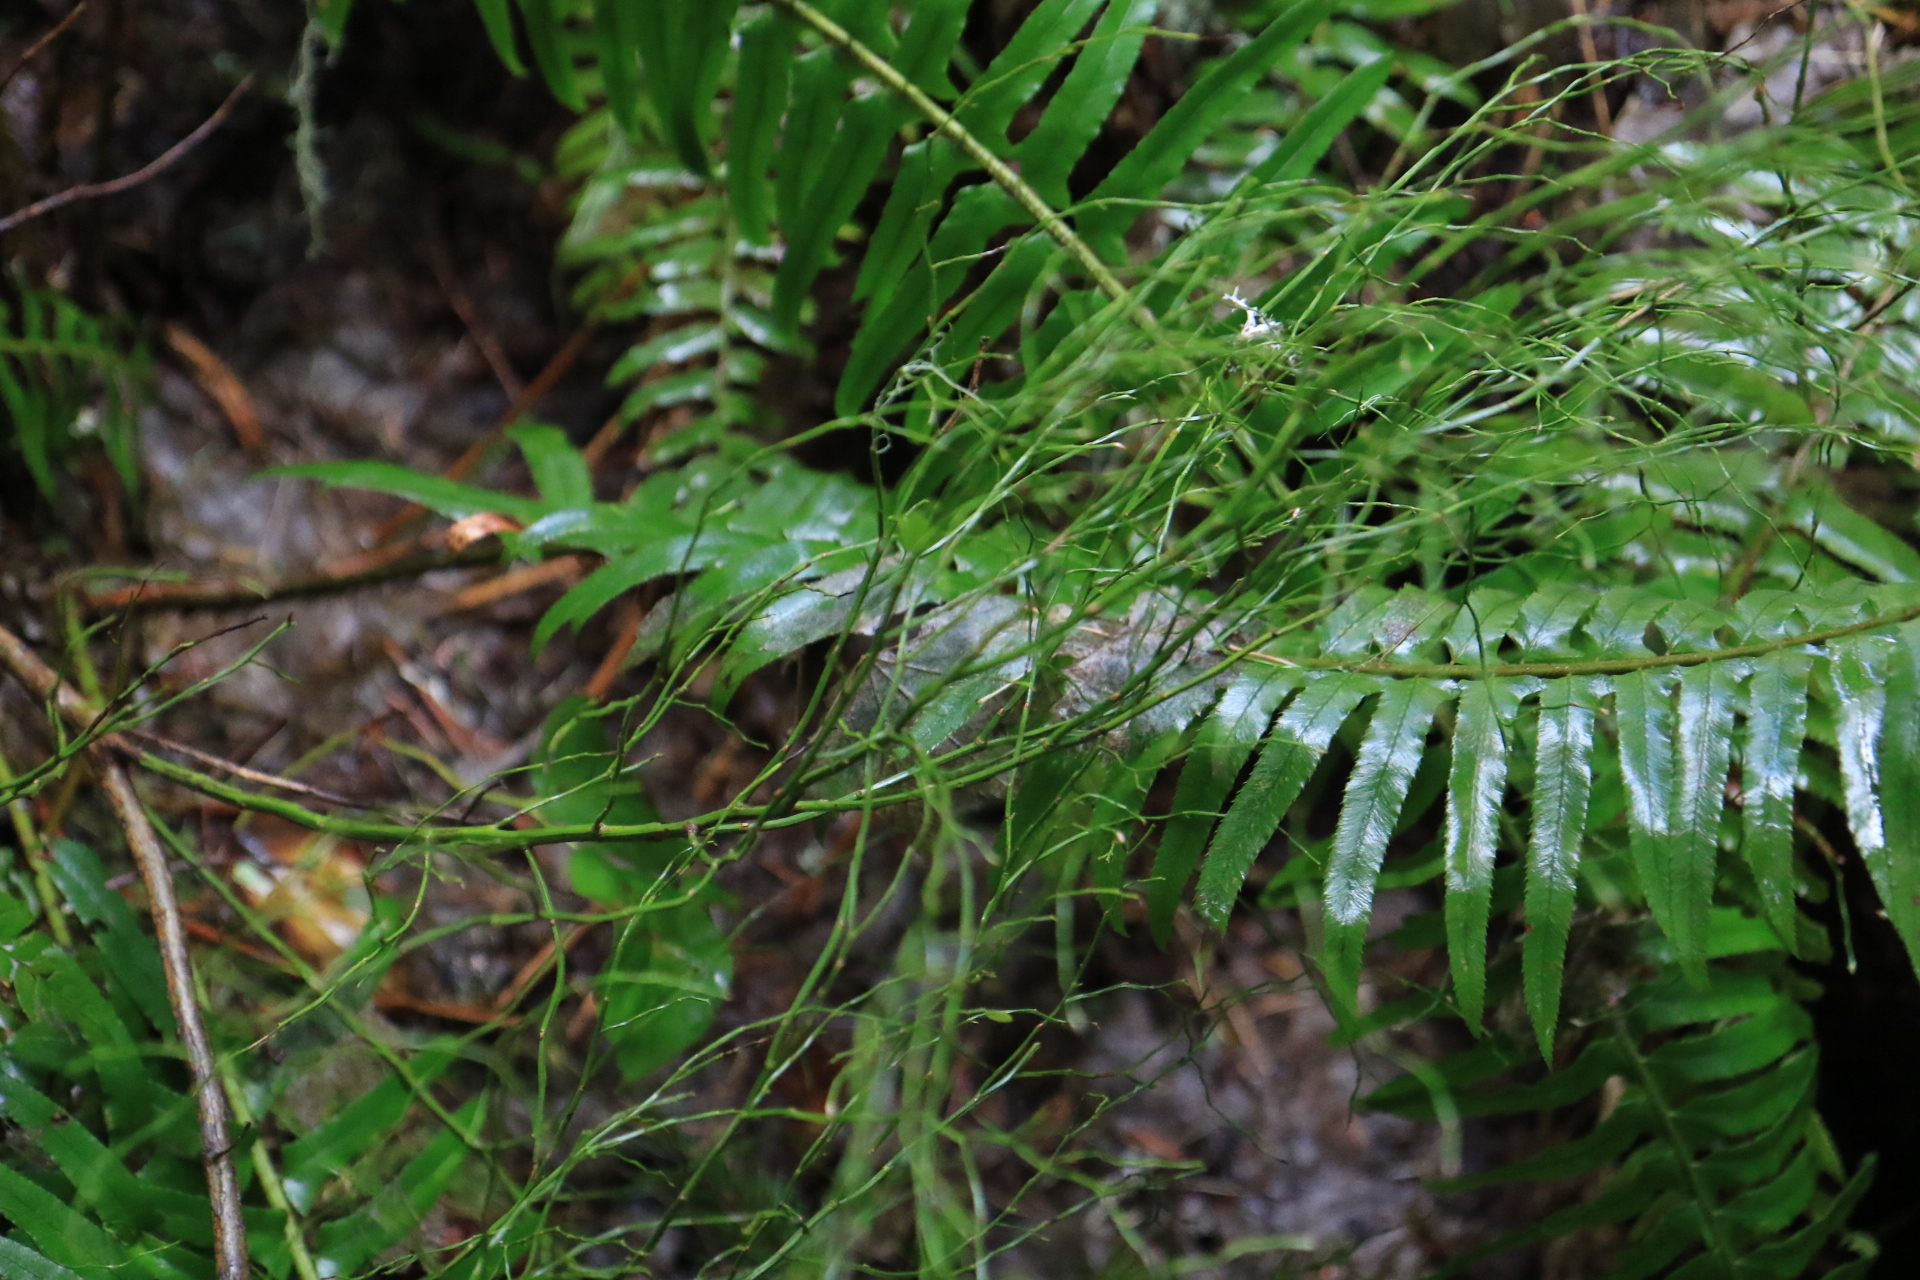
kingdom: Plantae
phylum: Tracheophyta
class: Polypodiopsida
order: Polypodiales
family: Dryopteridaceae
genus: Polystichum
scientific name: Polystichum munitum
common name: Western sword-fern
